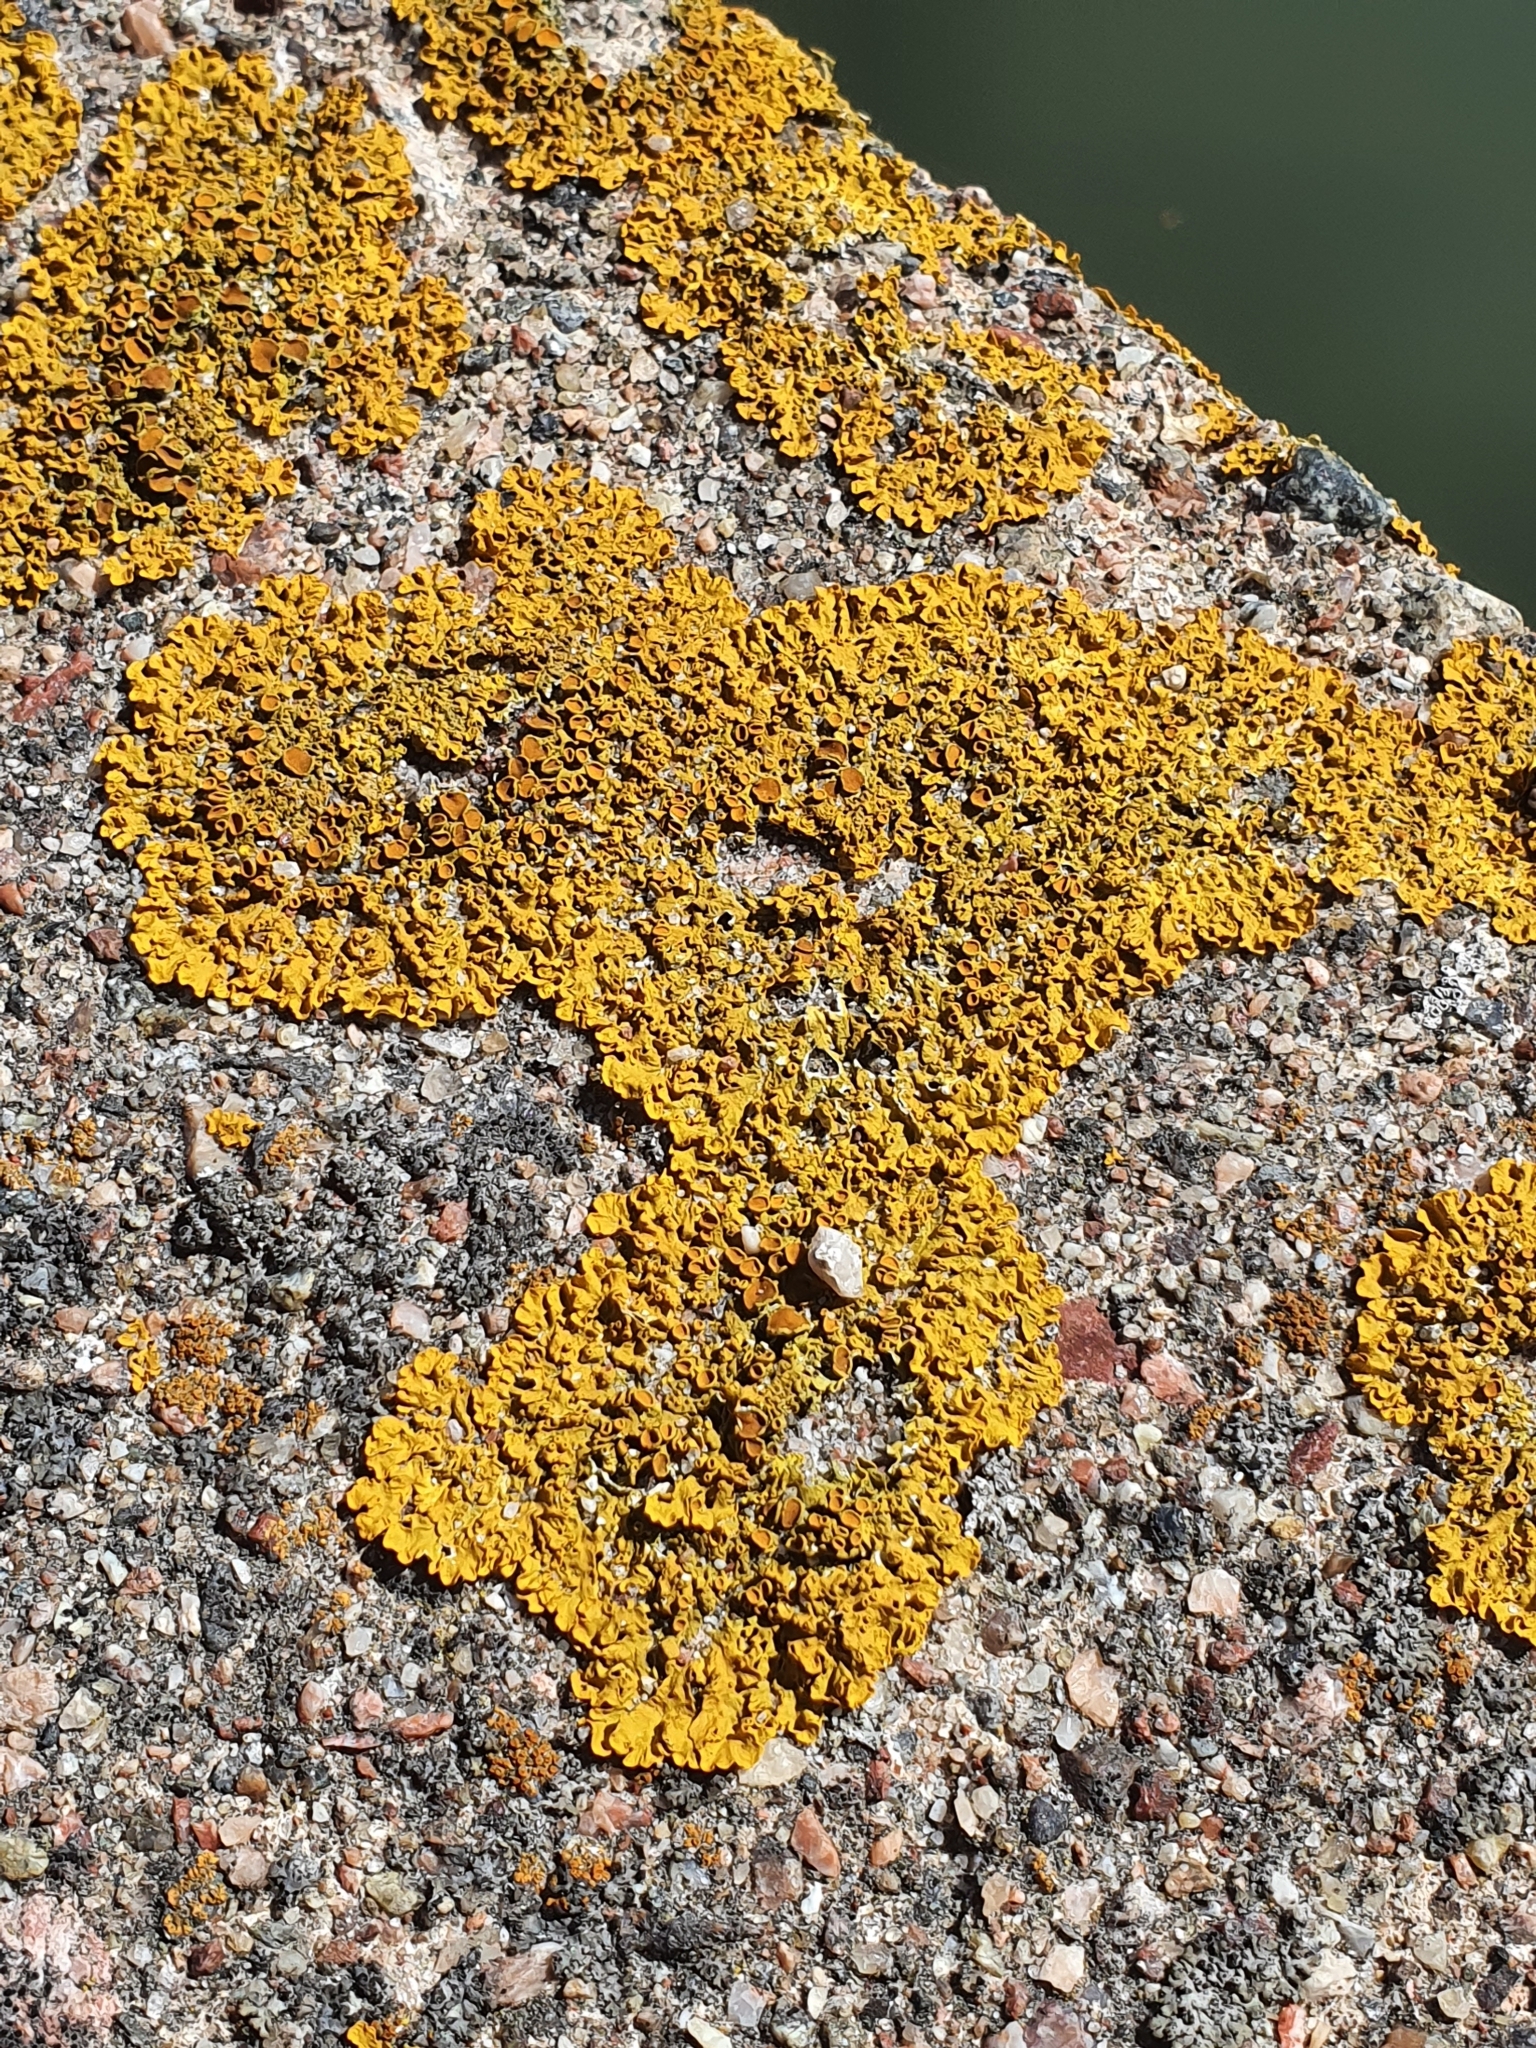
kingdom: Fungi
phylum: Ascomycota
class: Lecanoromycetes
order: Teloschistales
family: Teloschistaceae
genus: Xanthoria
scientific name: Xanthoria parietina
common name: Common orange lichen
